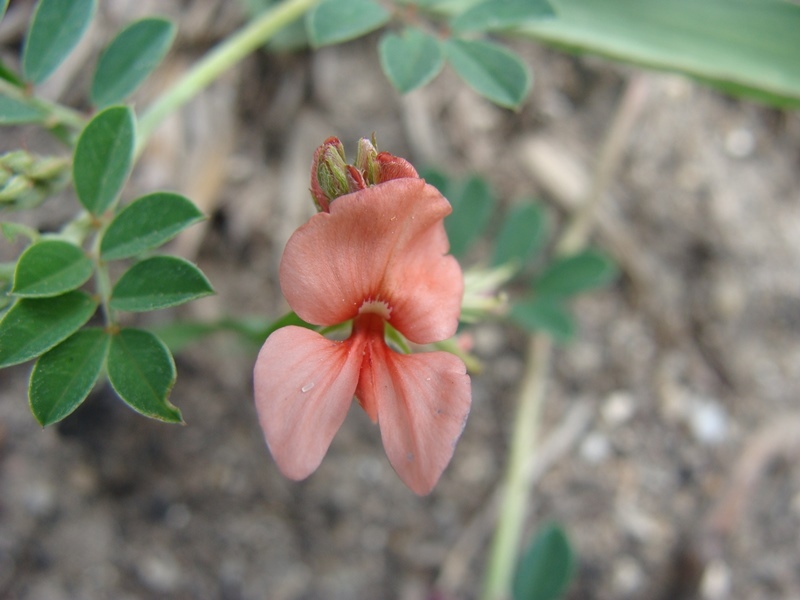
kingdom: Plantae
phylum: Tracheophyta
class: Magnoliopsida
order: Fabales
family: Fabaceae
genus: Indigofera
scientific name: Indigofera miniata
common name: Coast indigo
